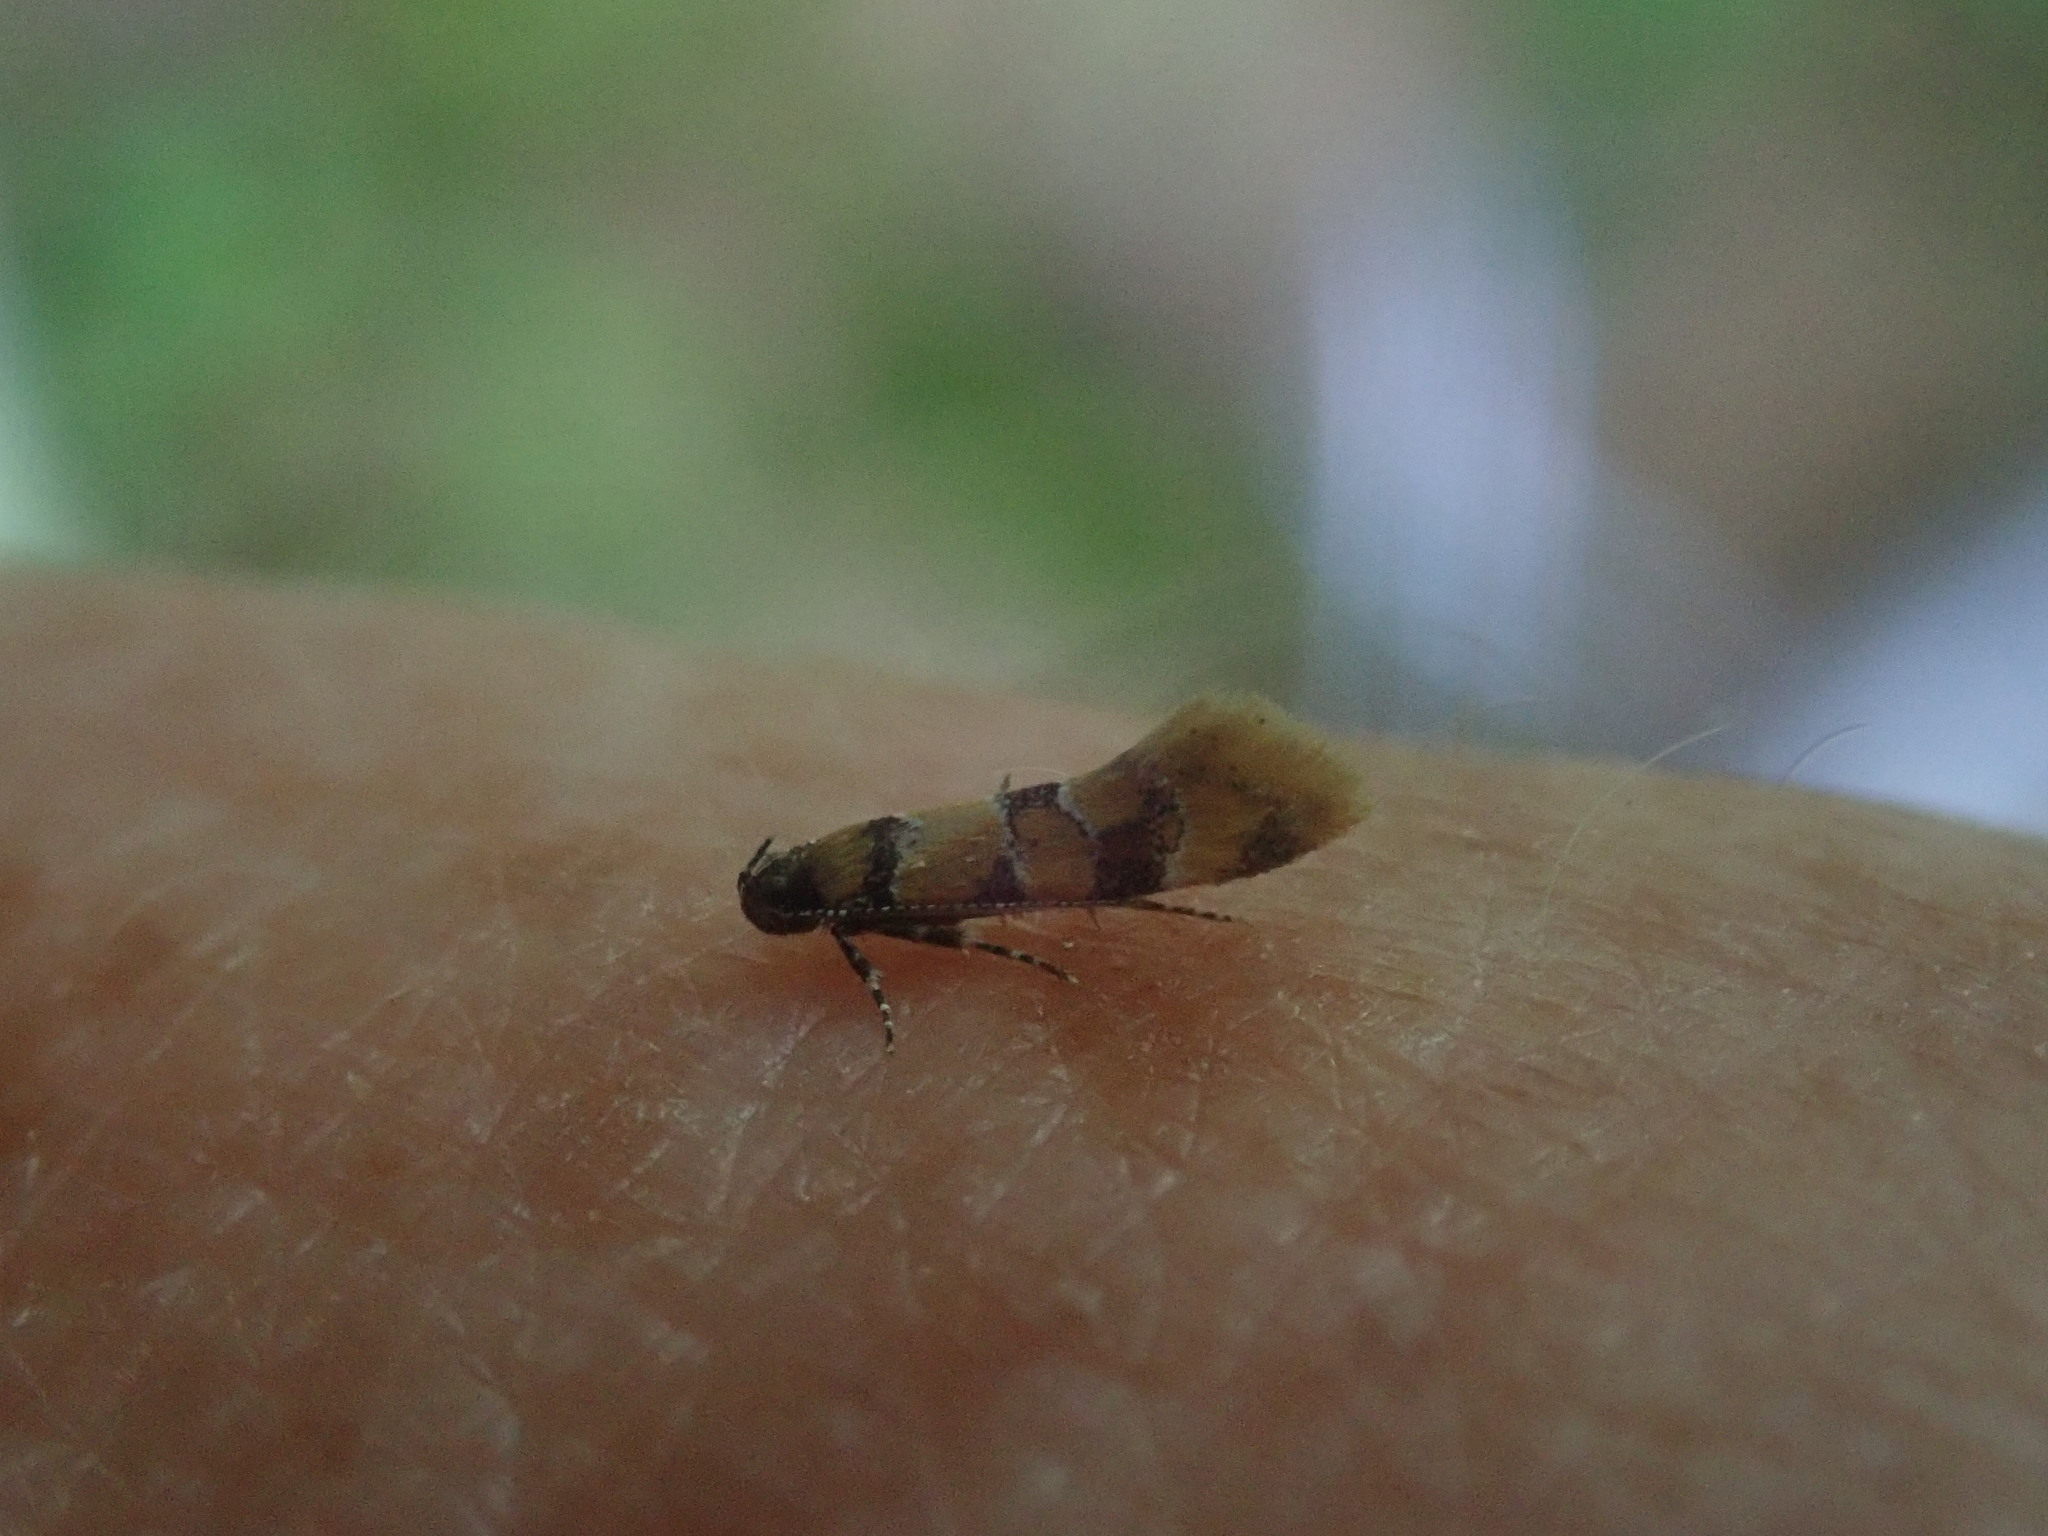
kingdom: Animalia
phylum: Arthropoda
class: Insecta
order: Lepidoptera
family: Oecophoridae
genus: Decantha
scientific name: Decantha borkhausenii
